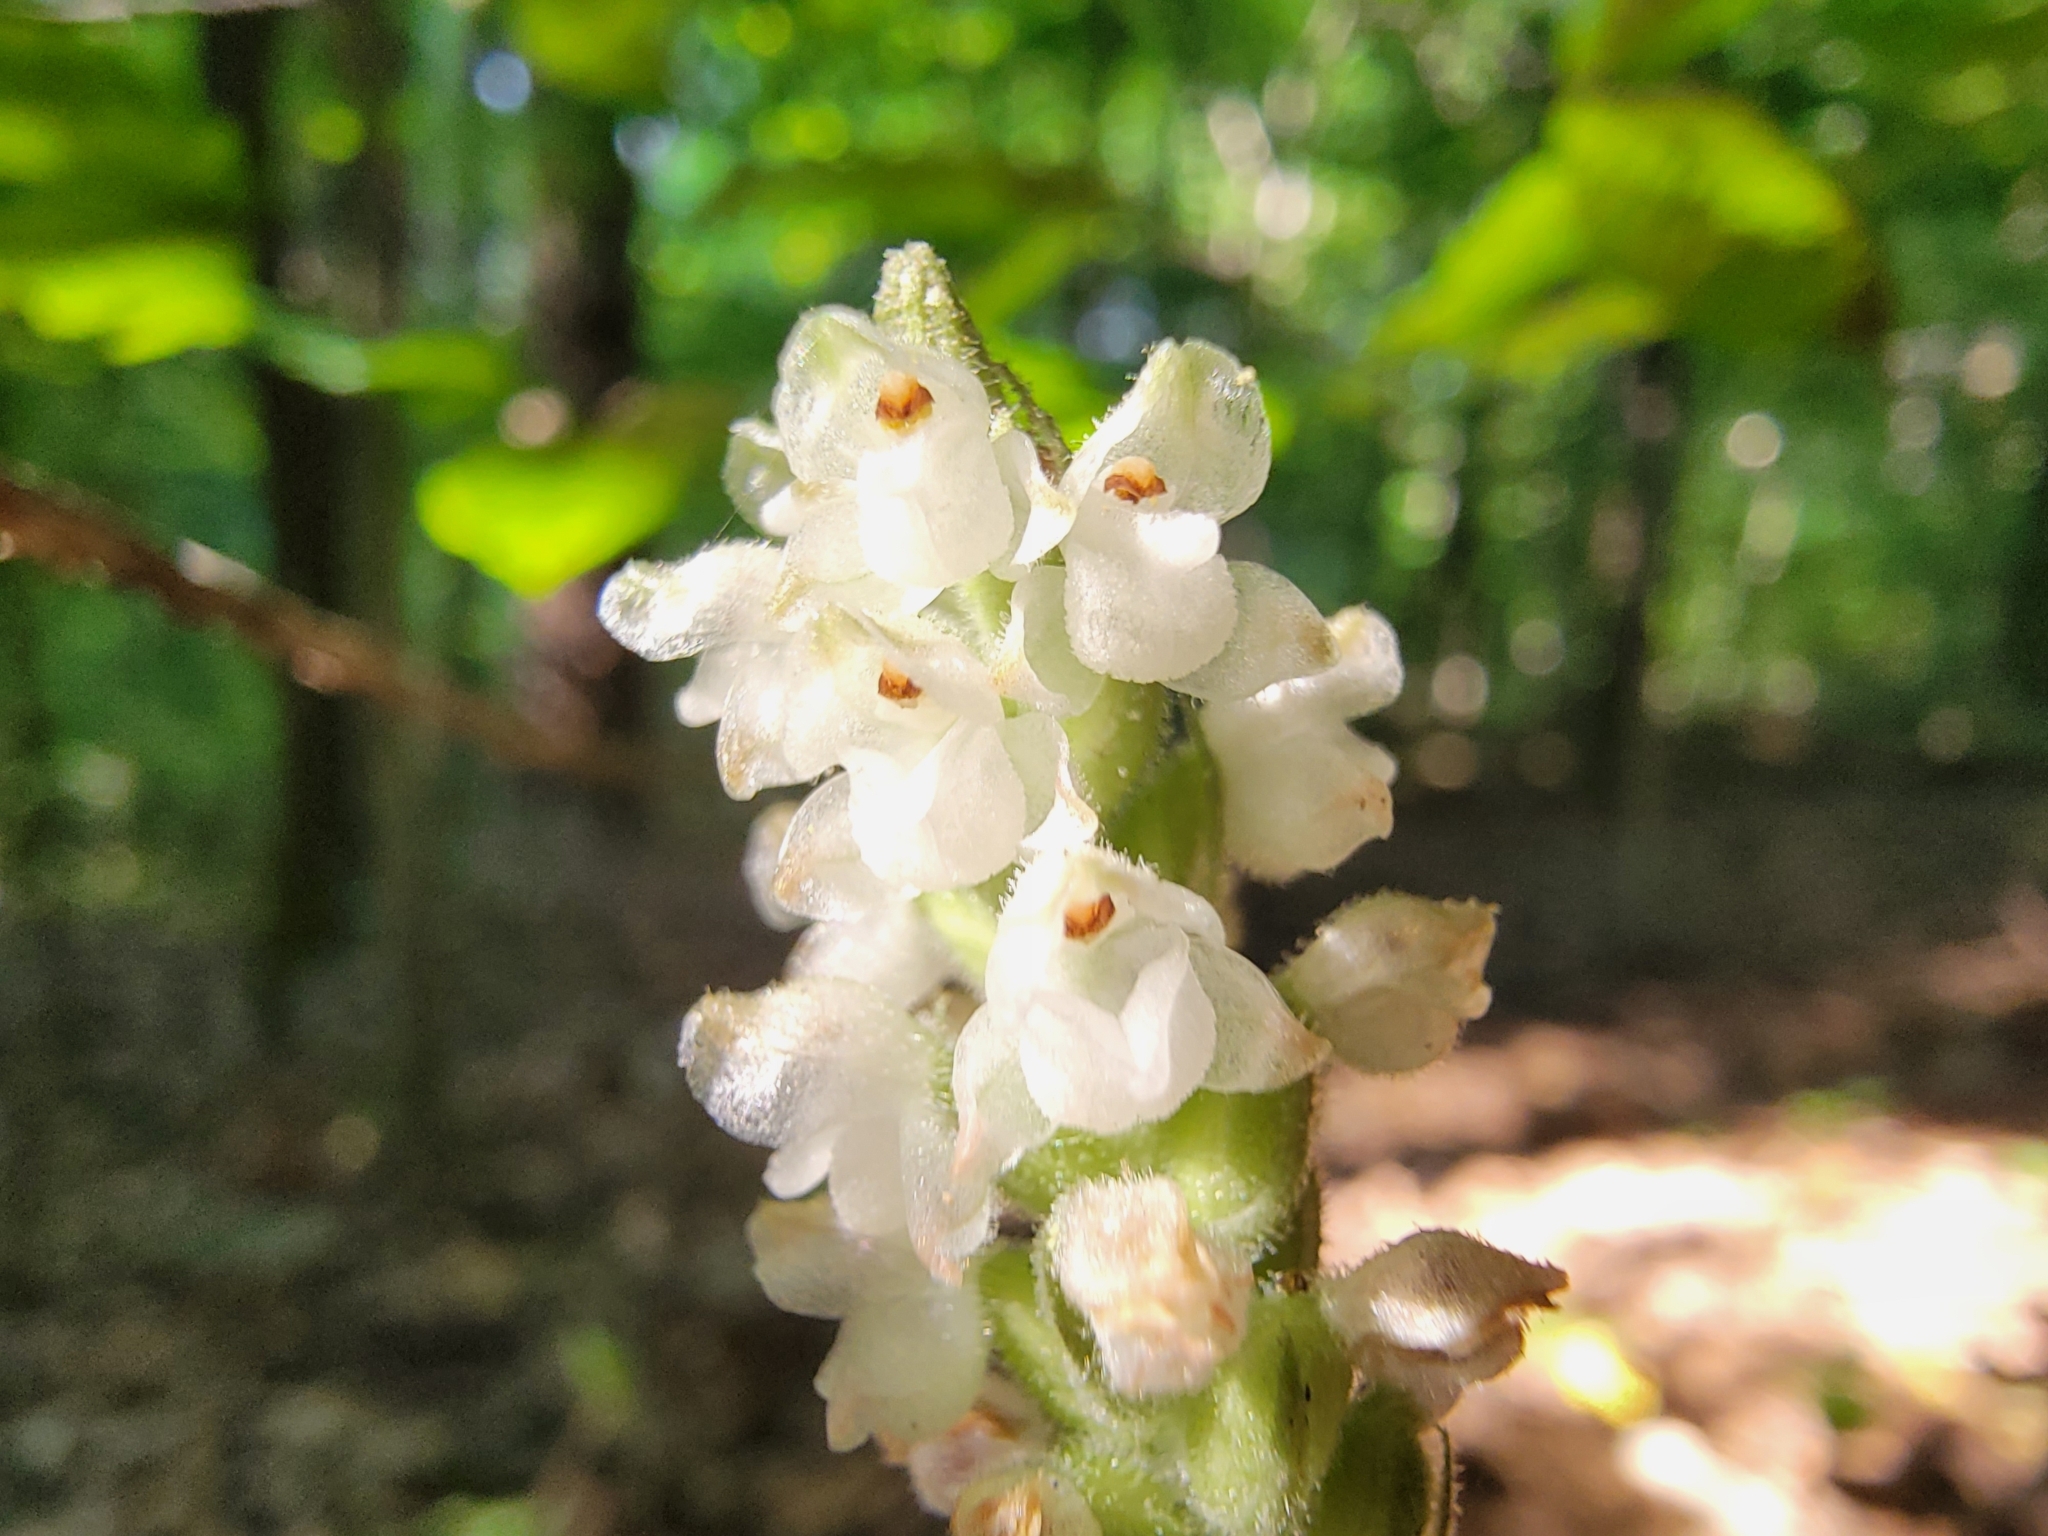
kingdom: Plantae
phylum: Tracheophyta
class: Liliopsida
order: Asparagales
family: Orchidaceae
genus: Goodyera
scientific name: Goodyera pubescens
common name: Downy rattlesnake-plantain
